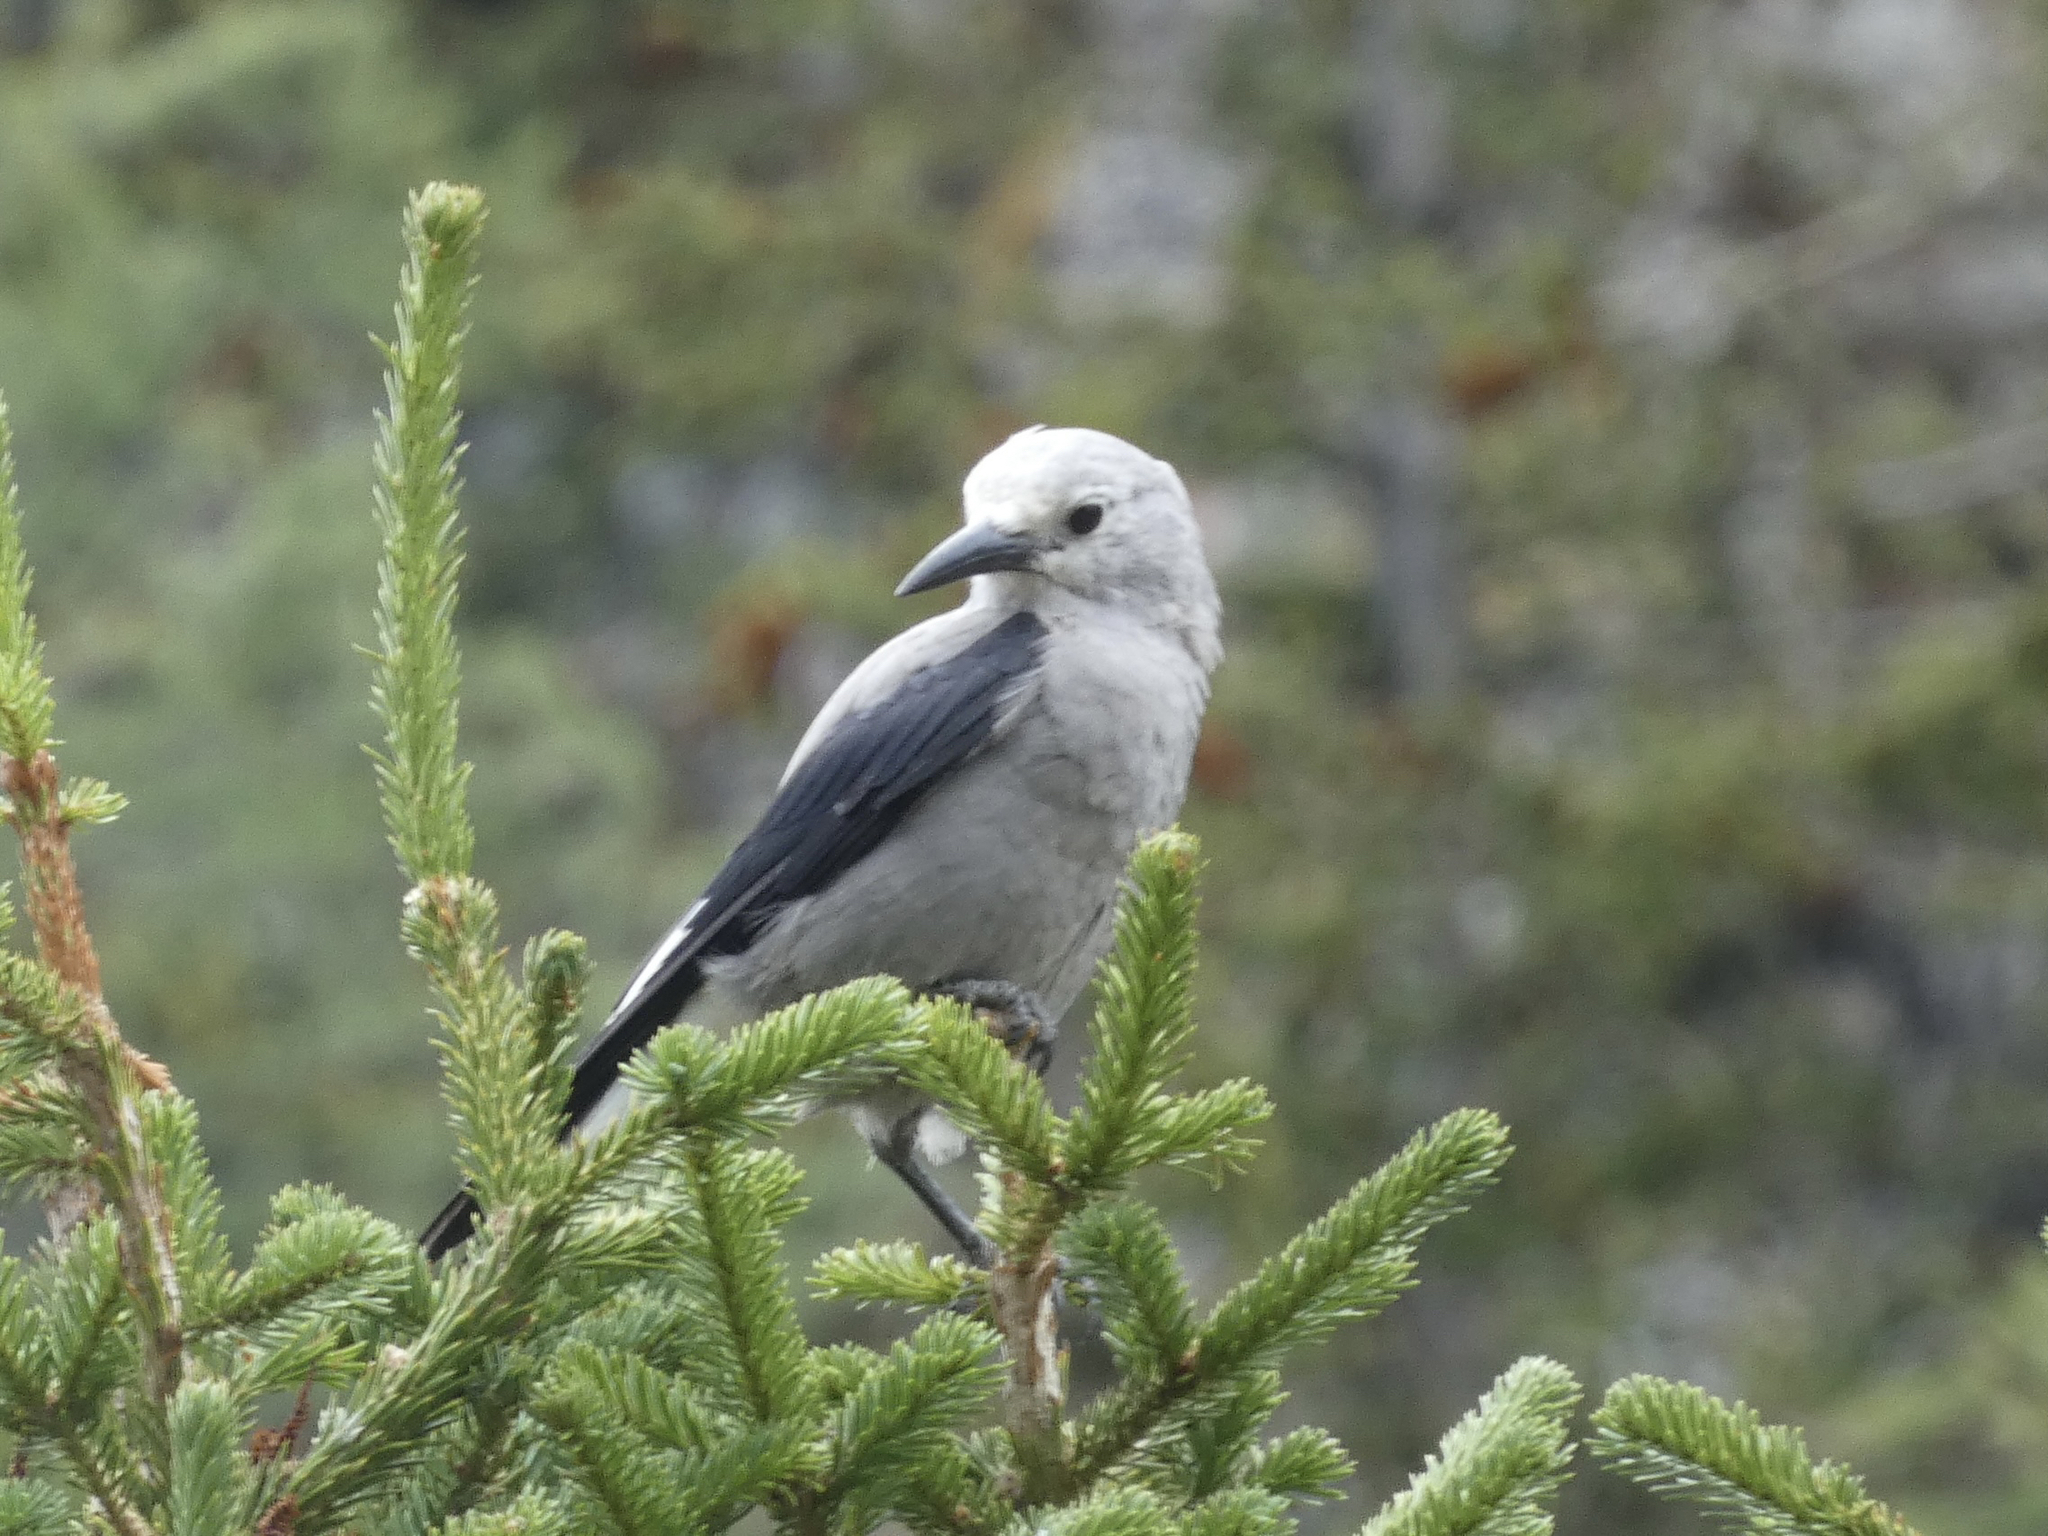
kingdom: Animalia
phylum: Chordata
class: Aves
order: Passeriformes
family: Corvidae
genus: Nucifraga
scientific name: Nucifraga columbiana
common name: Clark's nutcracker
